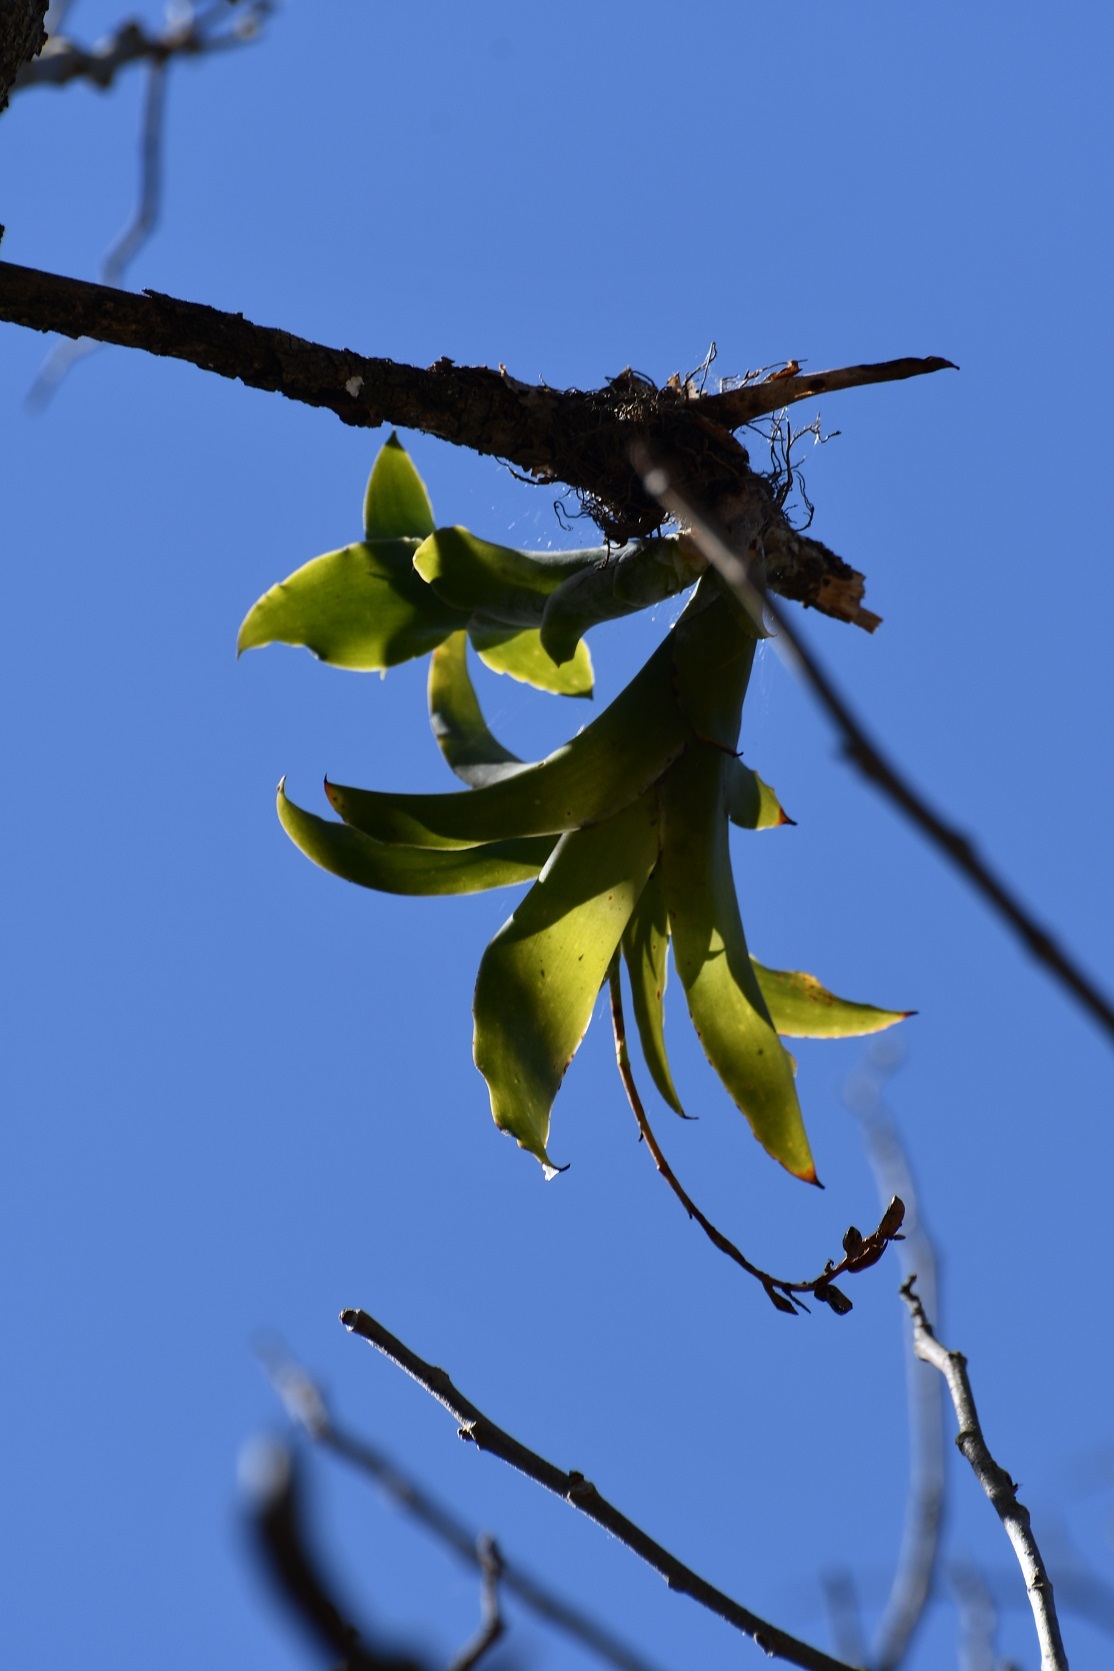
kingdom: Plantae
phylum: Tracheophyta
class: Liliopsida
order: Poales
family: Bromeliaceae
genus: Catopsis
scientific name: Catopsis nutans
